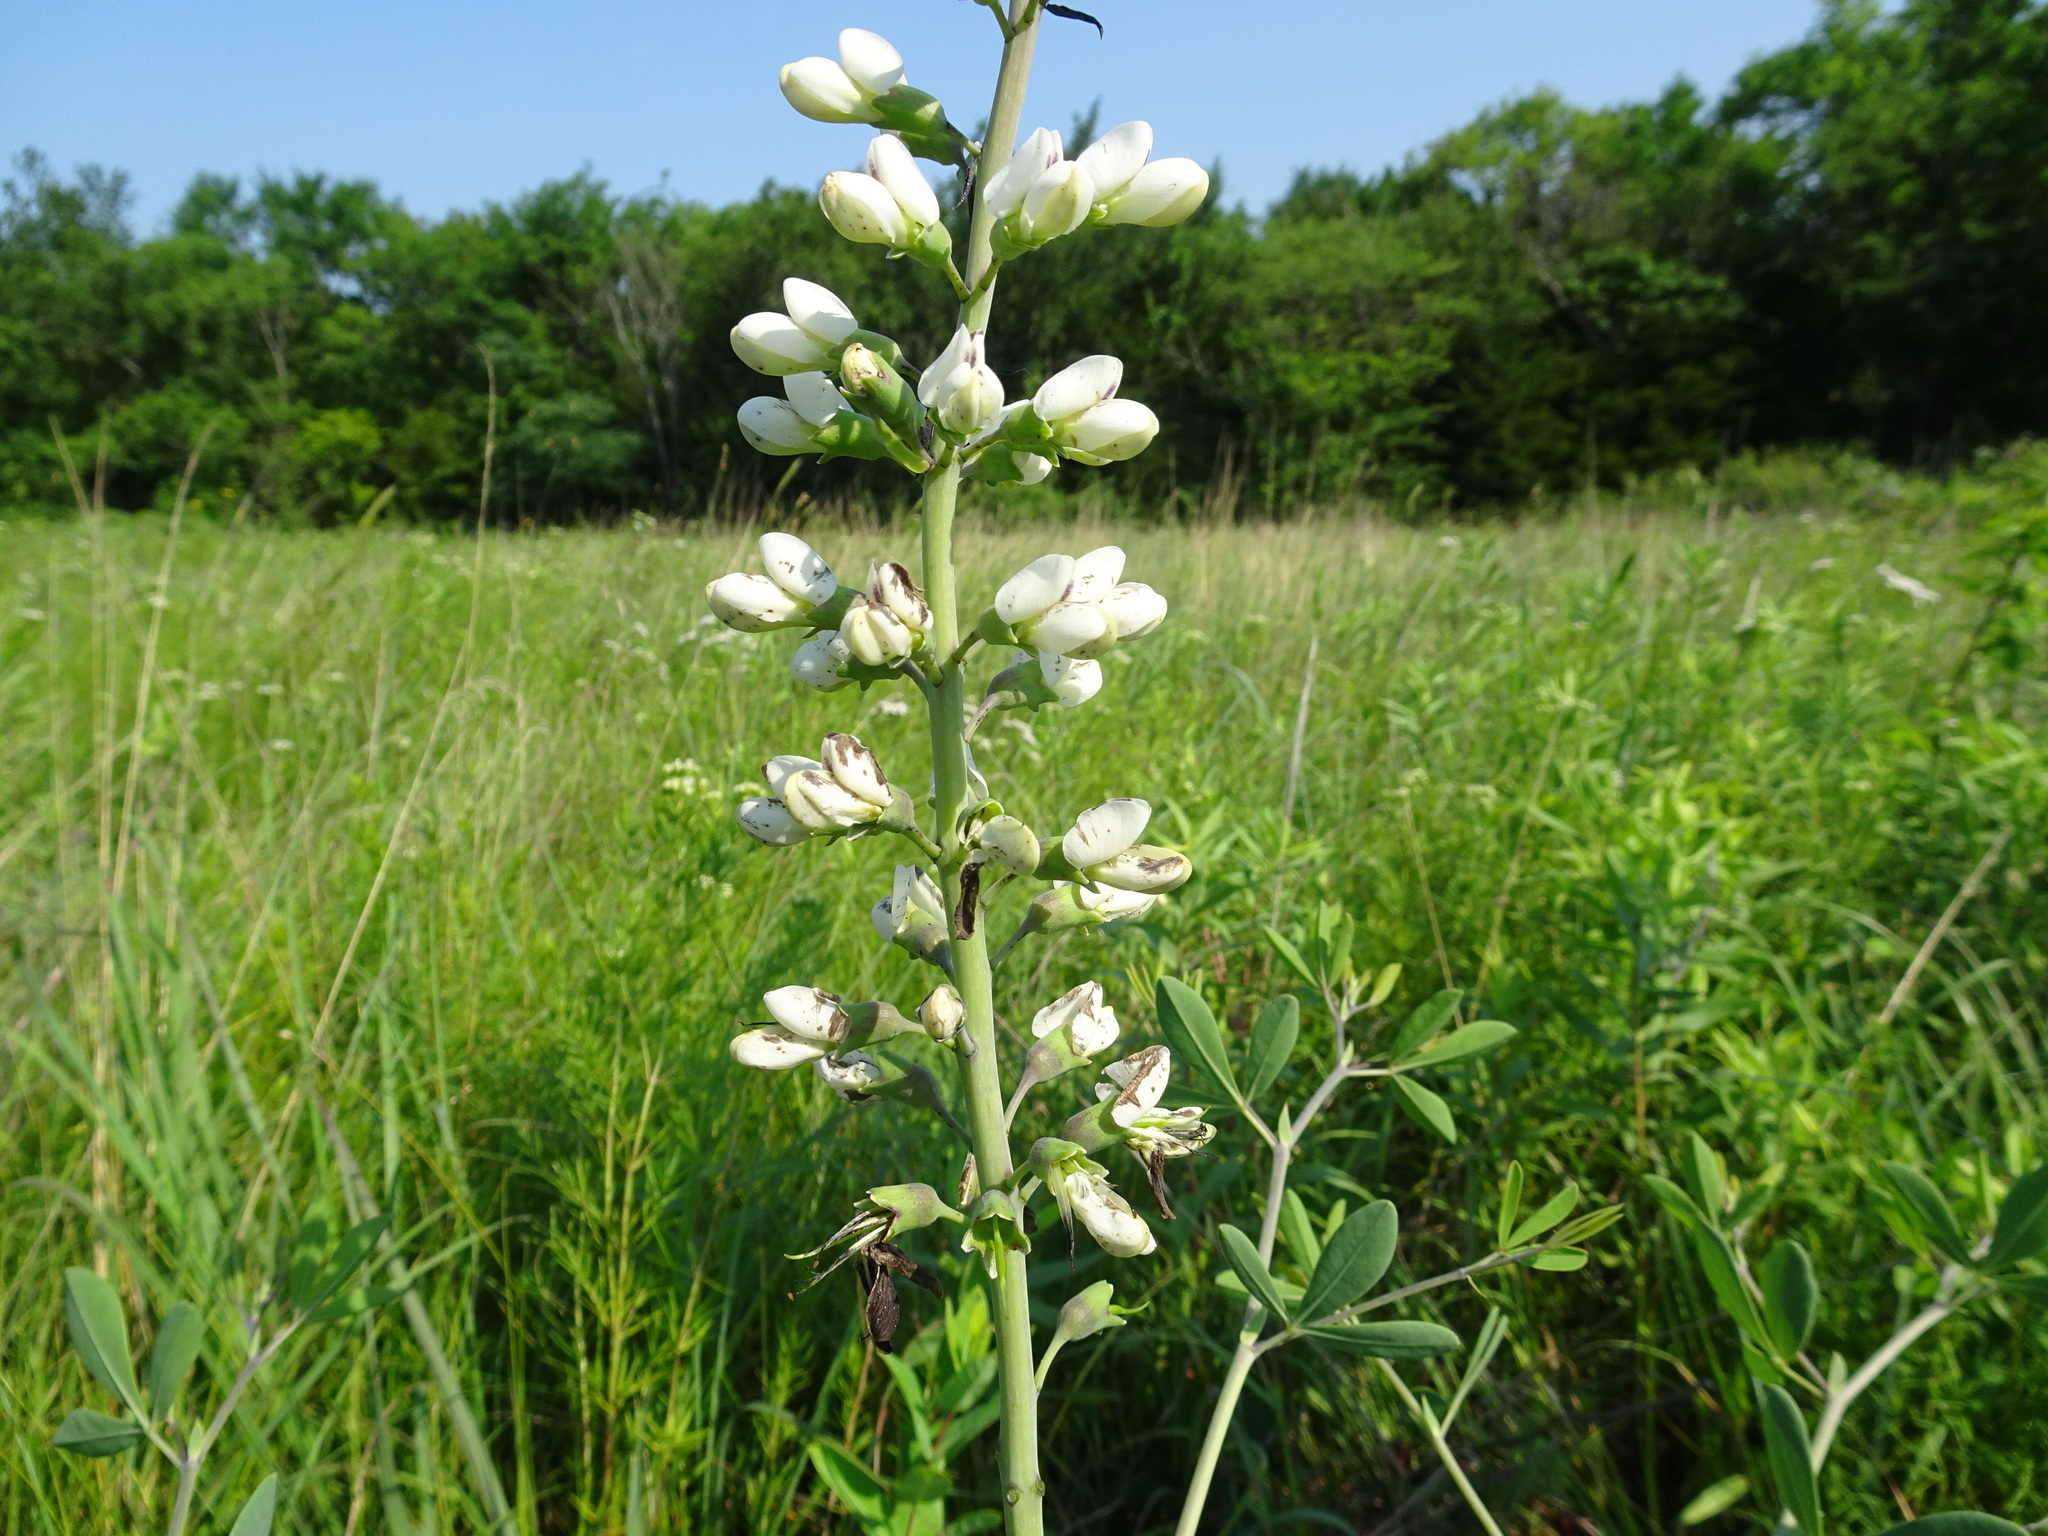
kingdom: Plantae
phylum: Tracheophyta
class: Magnoliopsida
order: Fabales
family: Fabaceae
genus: Baptisia
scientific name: Baptisia alba
